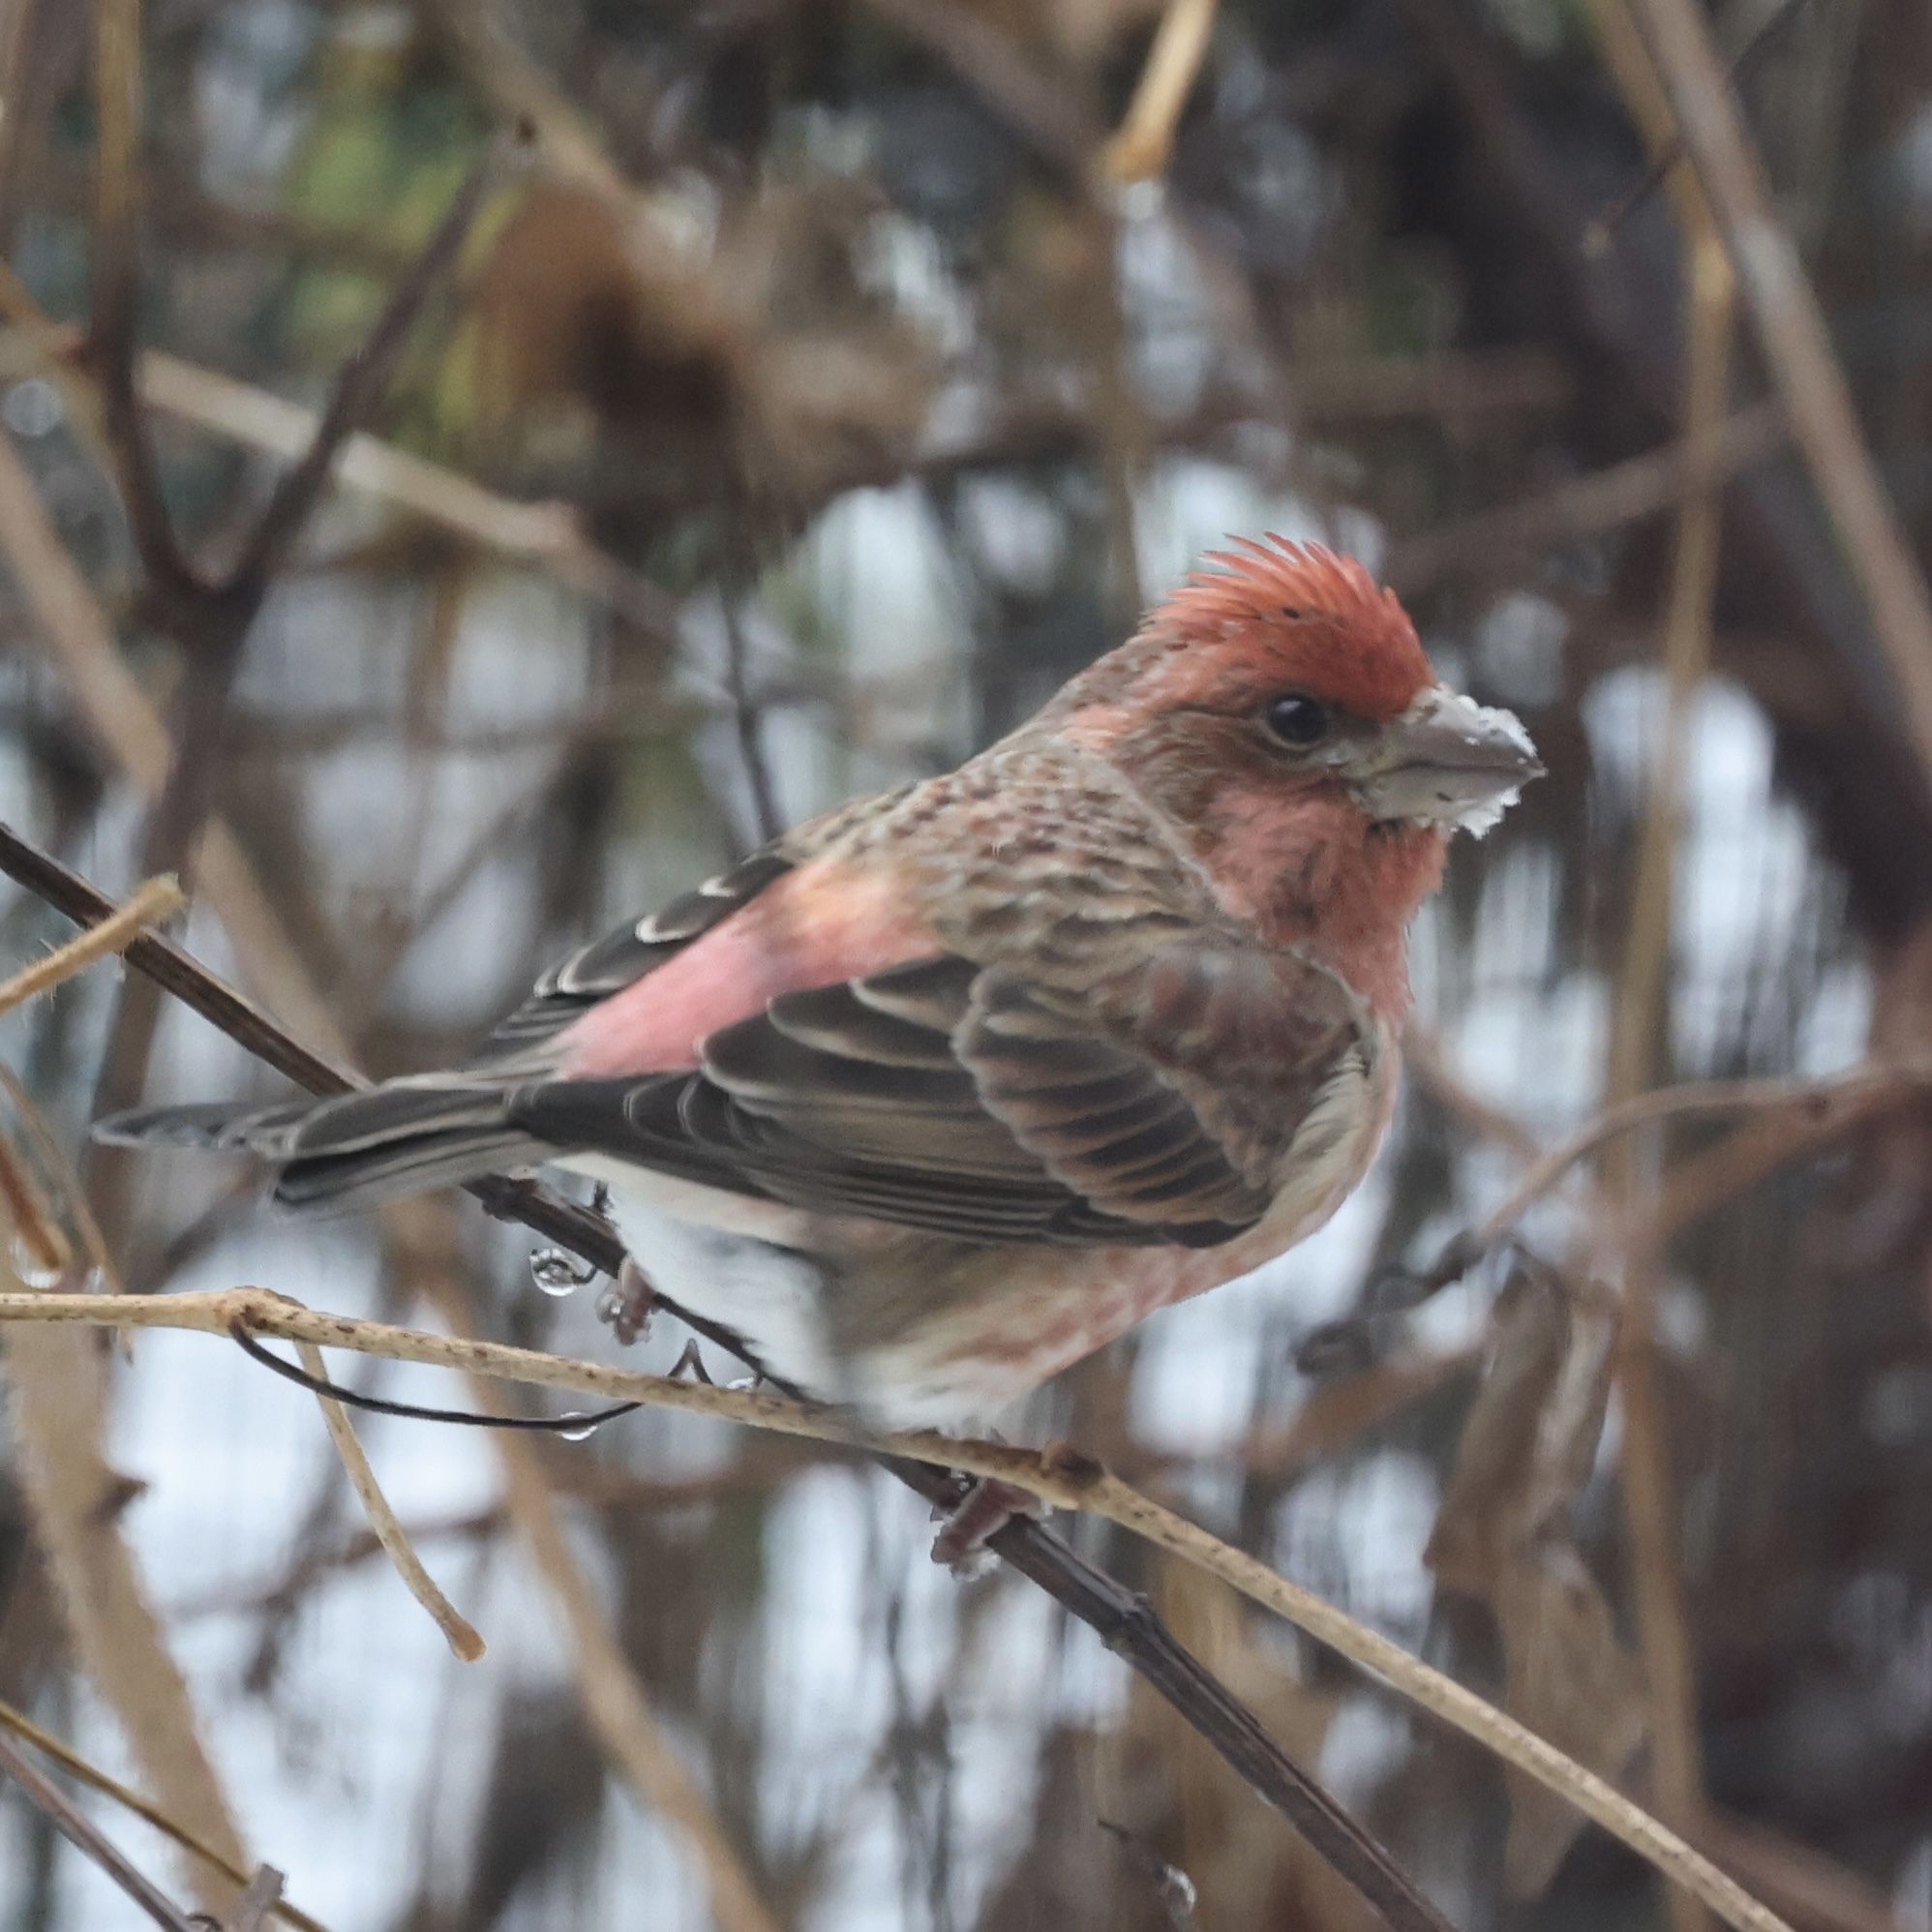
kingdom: Animalia
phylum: Chordata
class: Aves
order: Passeriformes
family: Fringillidae
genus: Haemorhous
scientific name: Haemorhous purpureus
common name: Purple finch
